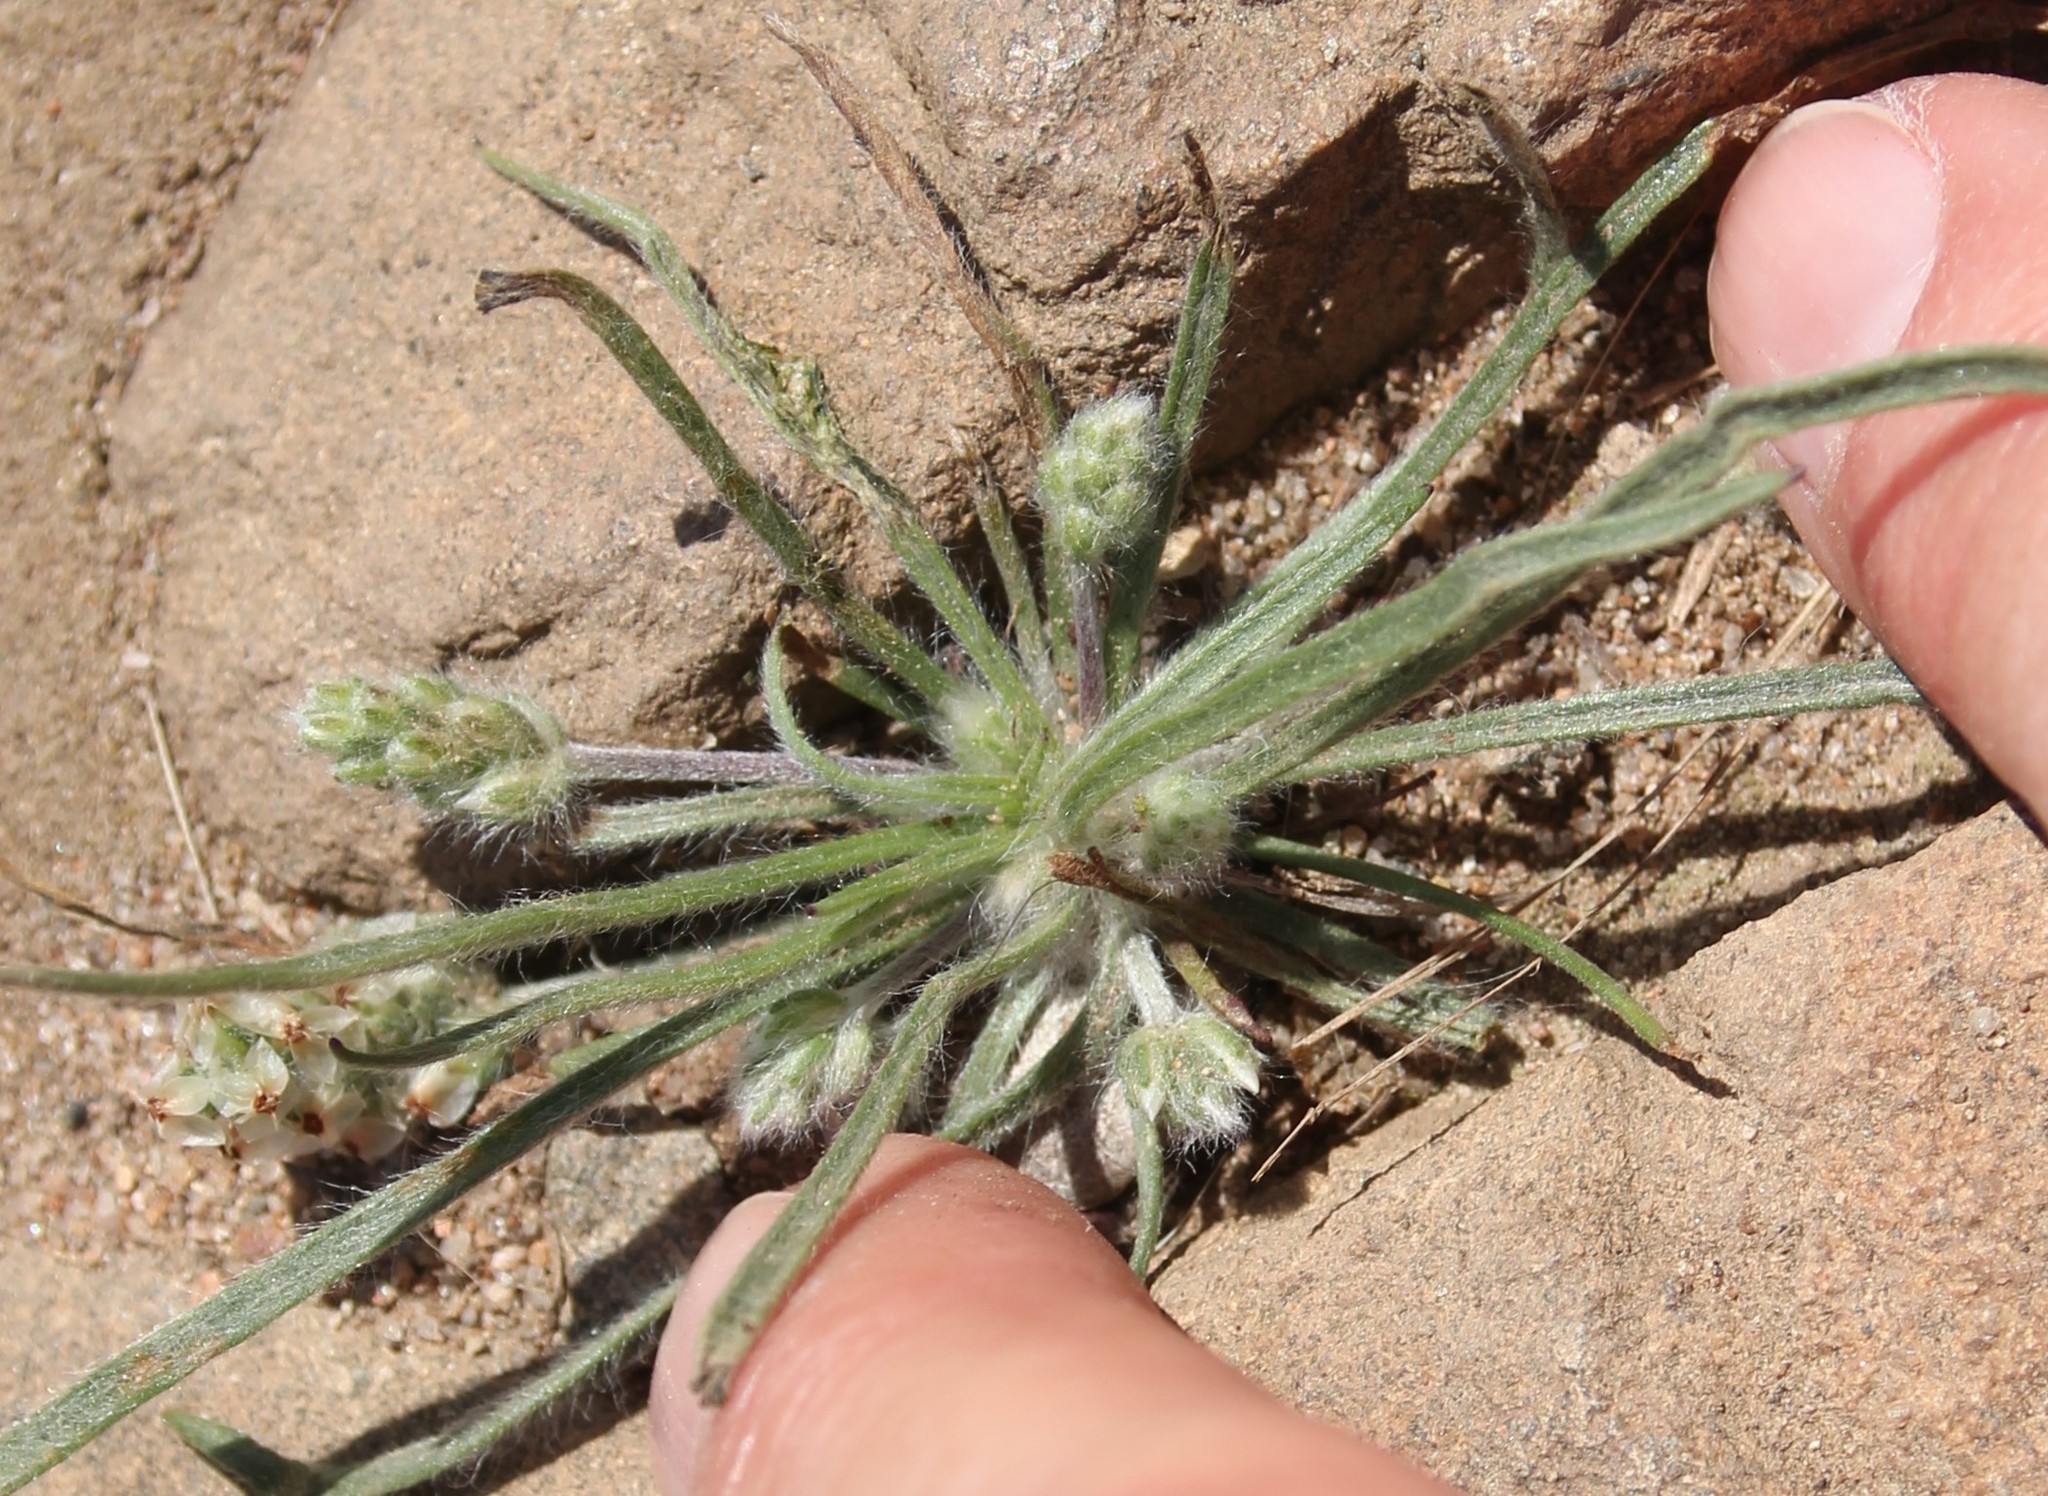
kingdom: Plantae
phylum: Tracheophyta
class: Magnoliopsida
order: Lamiales
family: Plantaginaceae
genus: Plantago
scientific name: Plantago erecta
